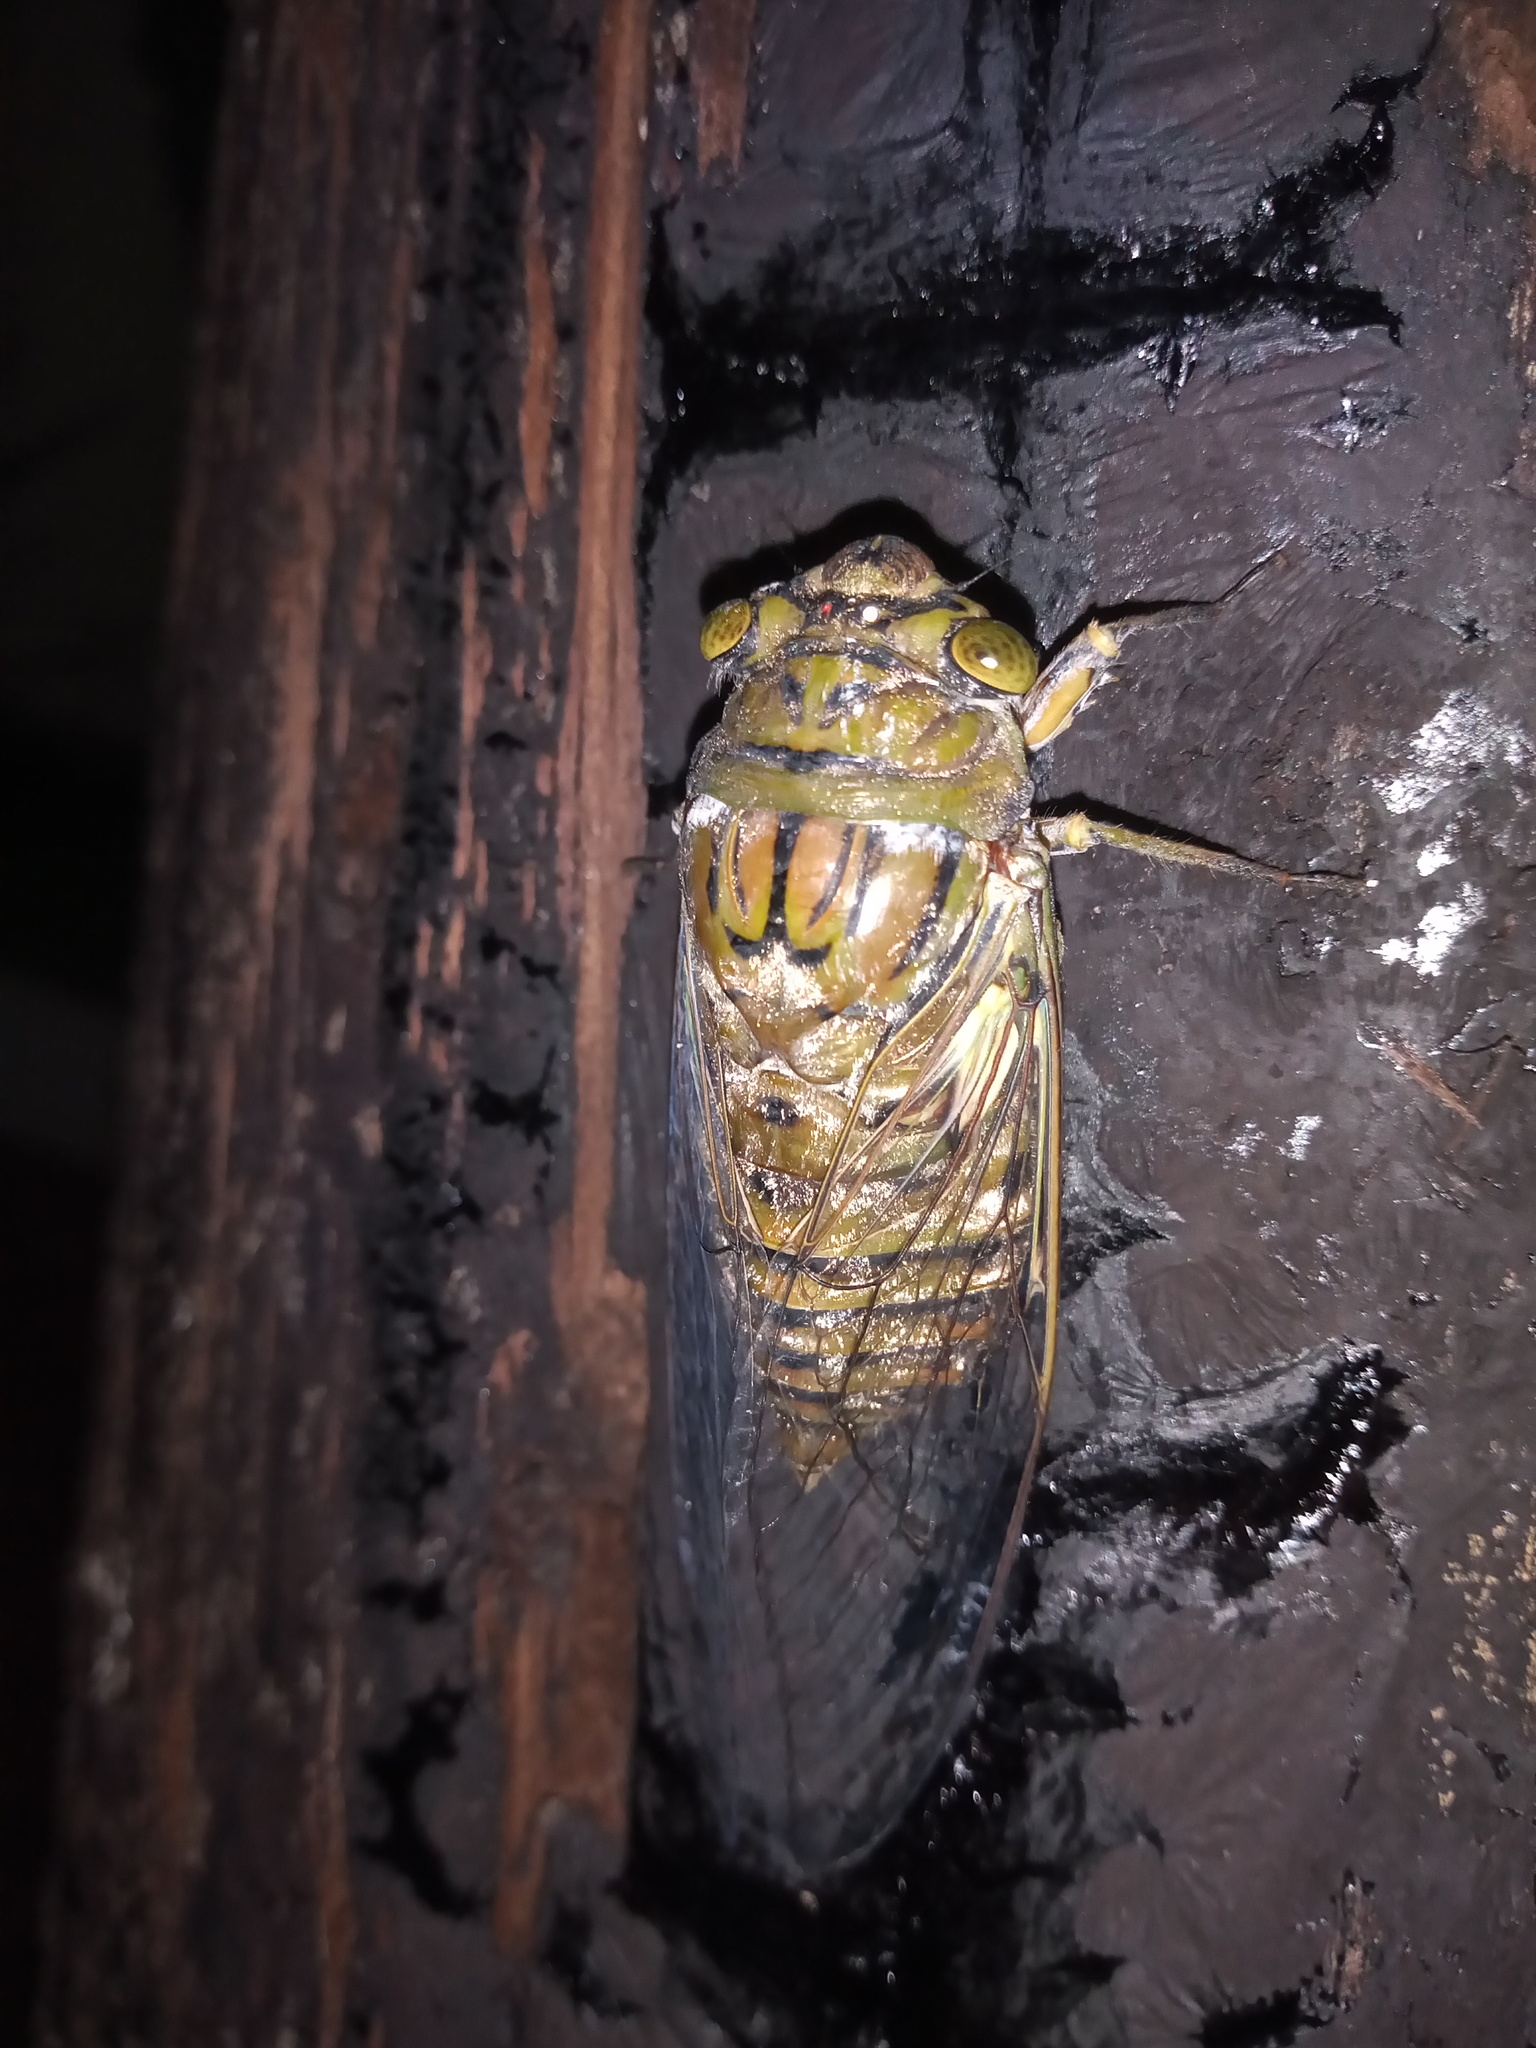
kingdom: Animalia
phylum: Arthropoda
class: Insecta
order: Hemiptera
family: Cicadidae
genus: Quesada
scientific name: Quesada gigas
